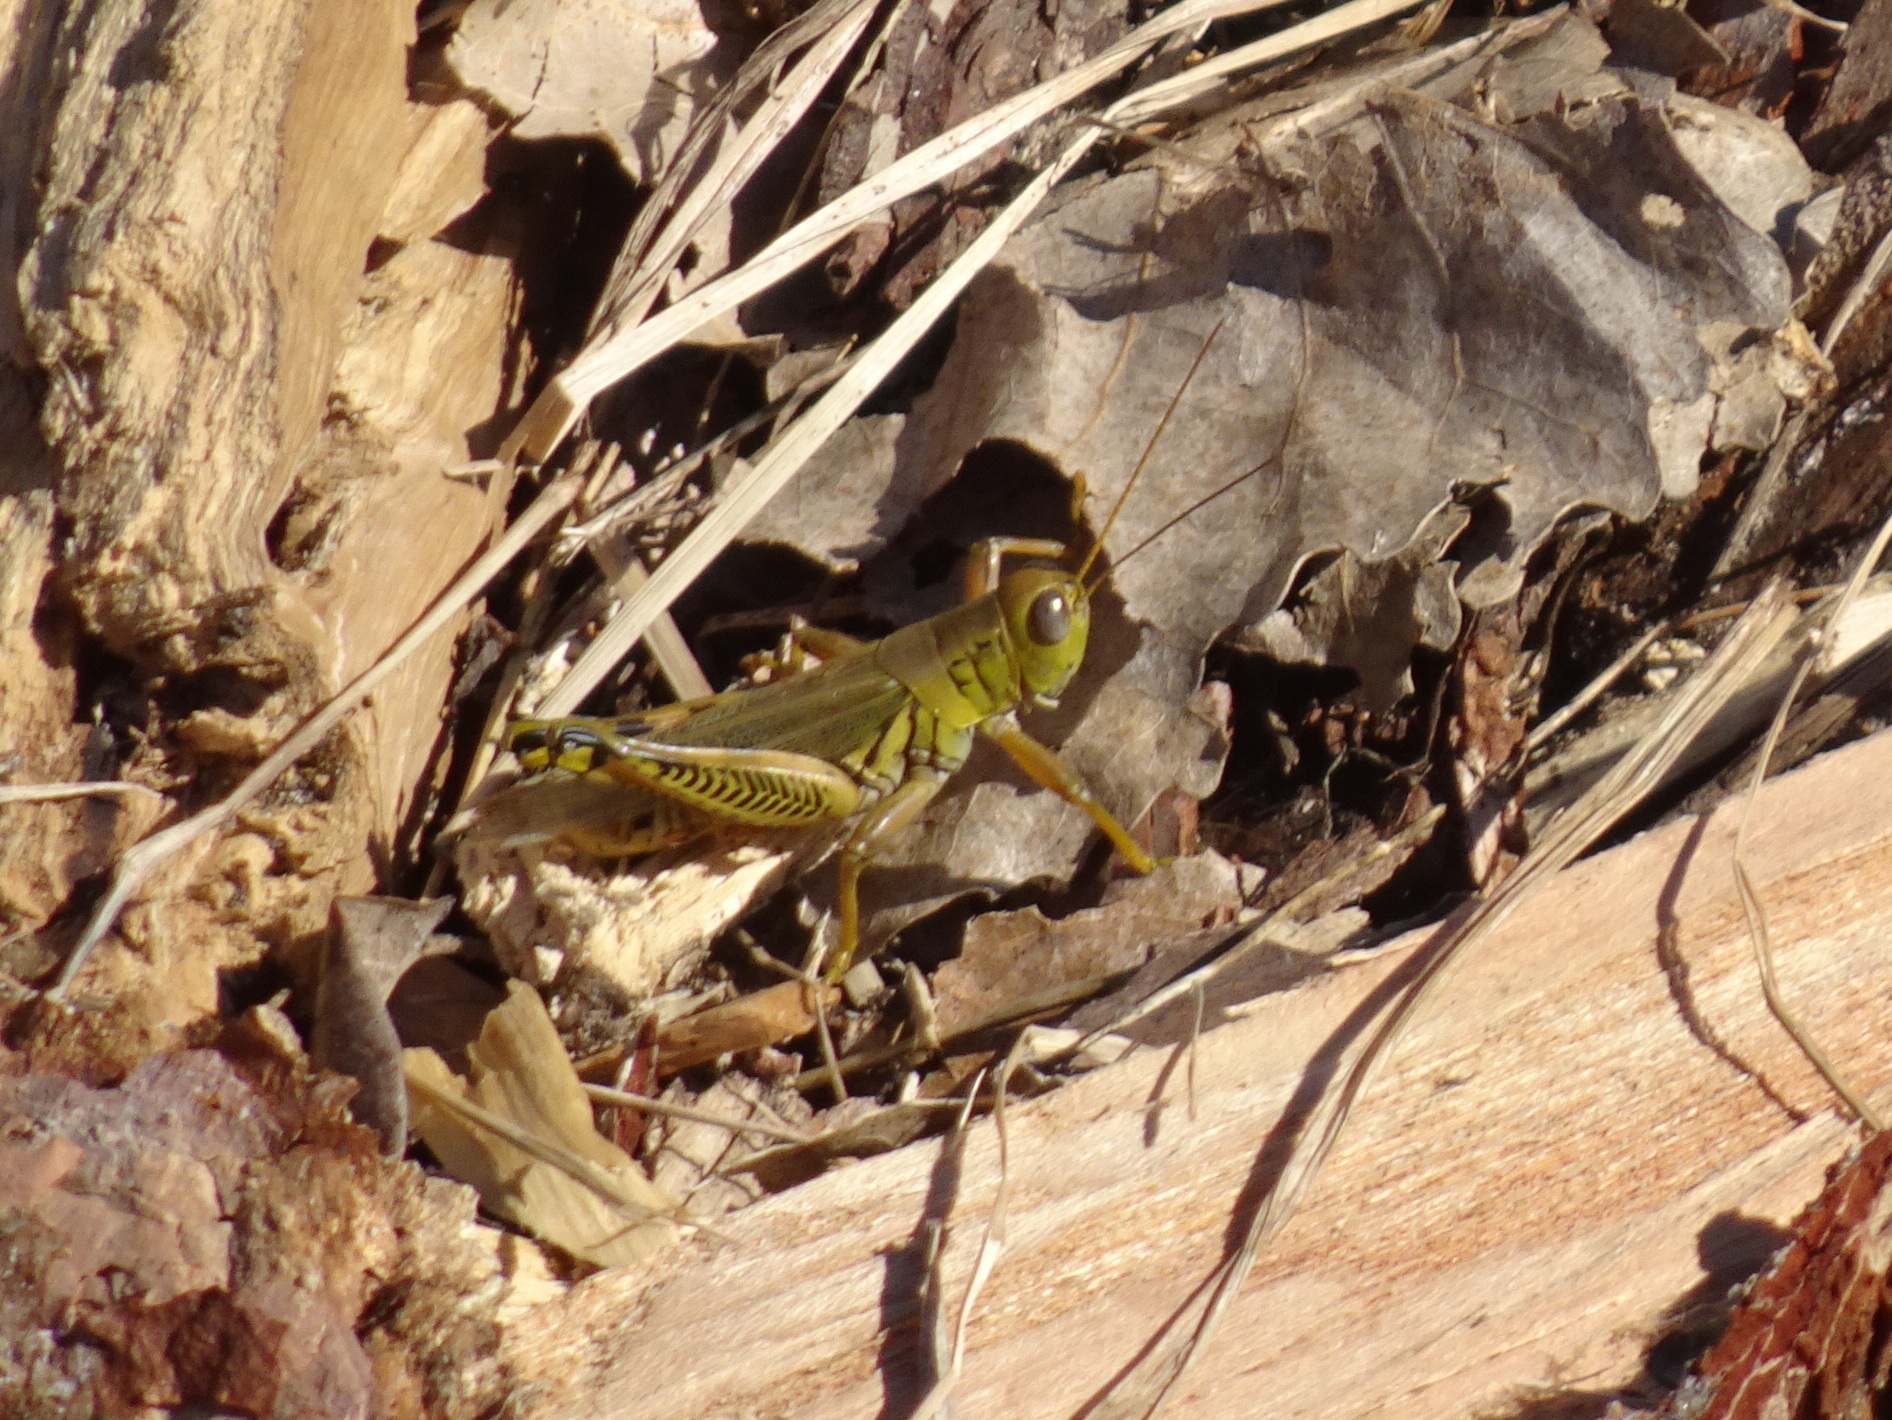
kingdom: Animalia
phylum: Arthropoda
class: Insecta
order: Orthoptera
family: Acrididae
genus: Melanoplus
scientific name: Melanoplus differentialis
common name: Differential grasshopper
